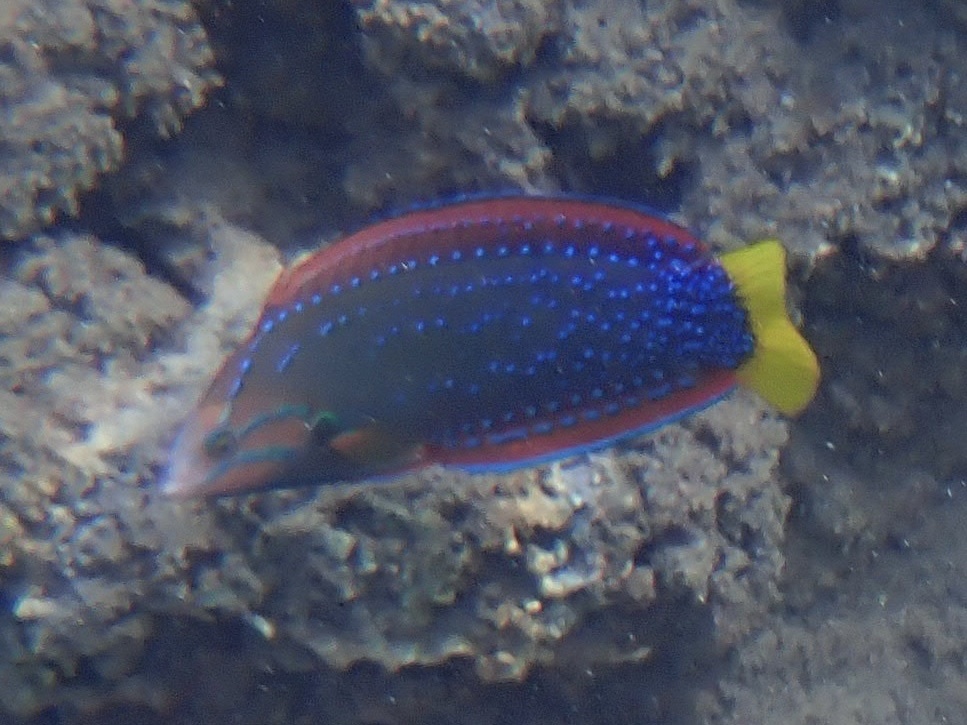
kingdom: Animalia
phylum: Chordata
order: Perciformes
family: Labridae
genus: Coris
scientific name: Coris gaimard
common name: Yellowtail coris
